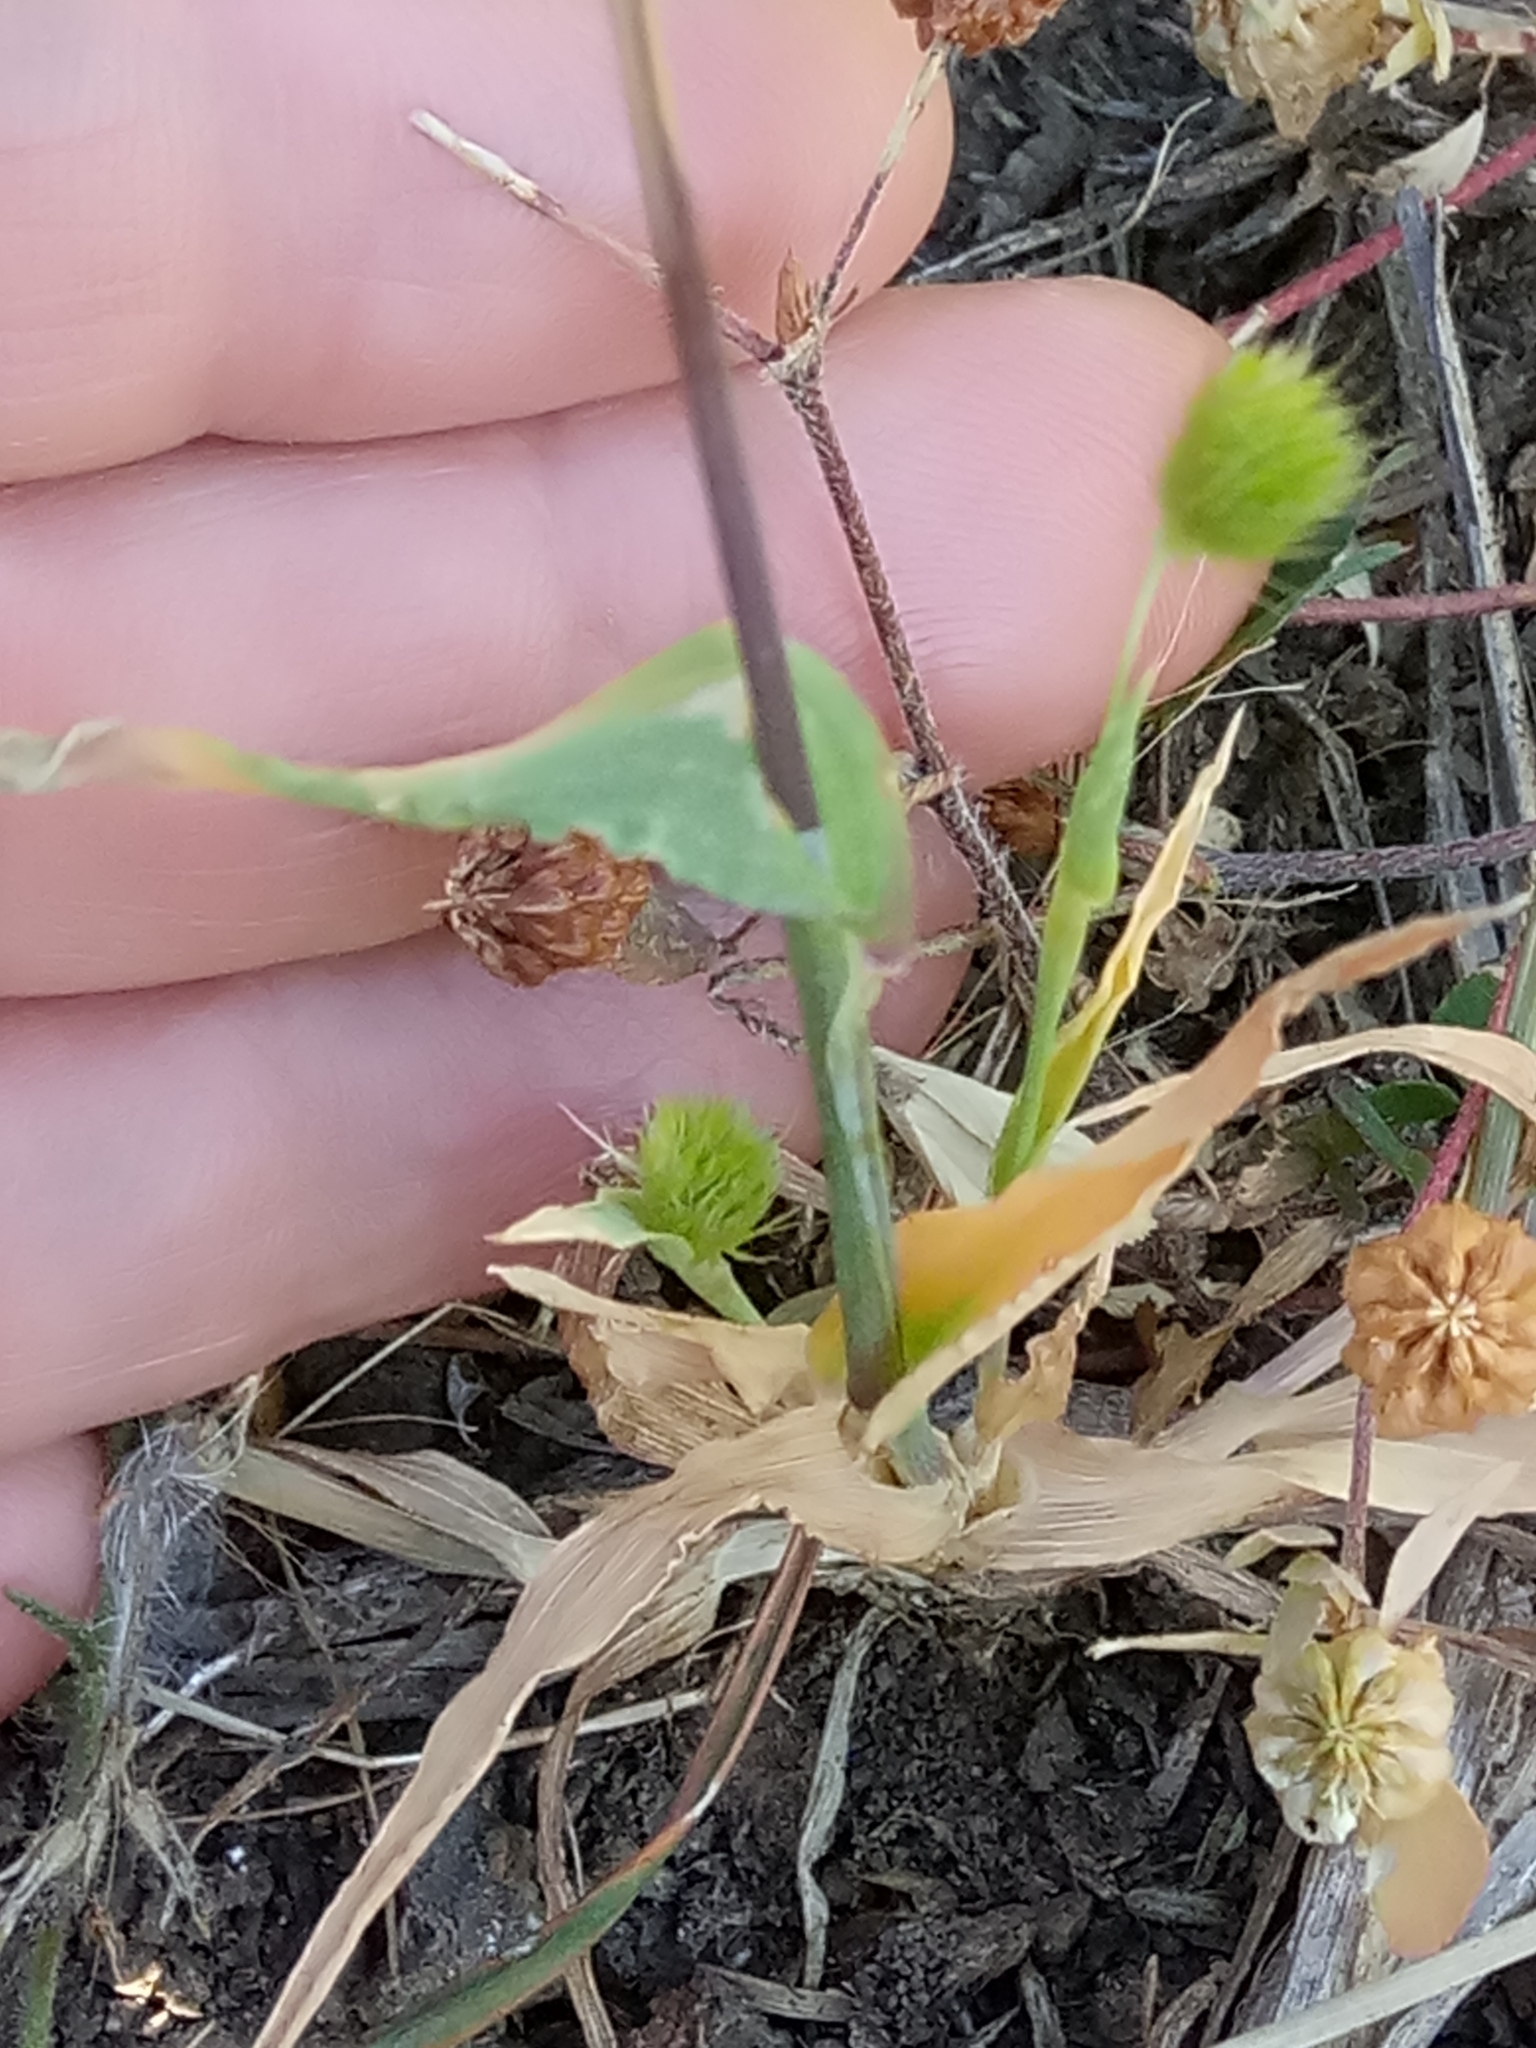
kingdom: Plantae
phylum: Tracheophyta
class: Liliopsida
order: Poales
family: Poaceae
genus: Cynosurus
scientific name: Cynosurus echinatus
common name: Rough dog's-tail
